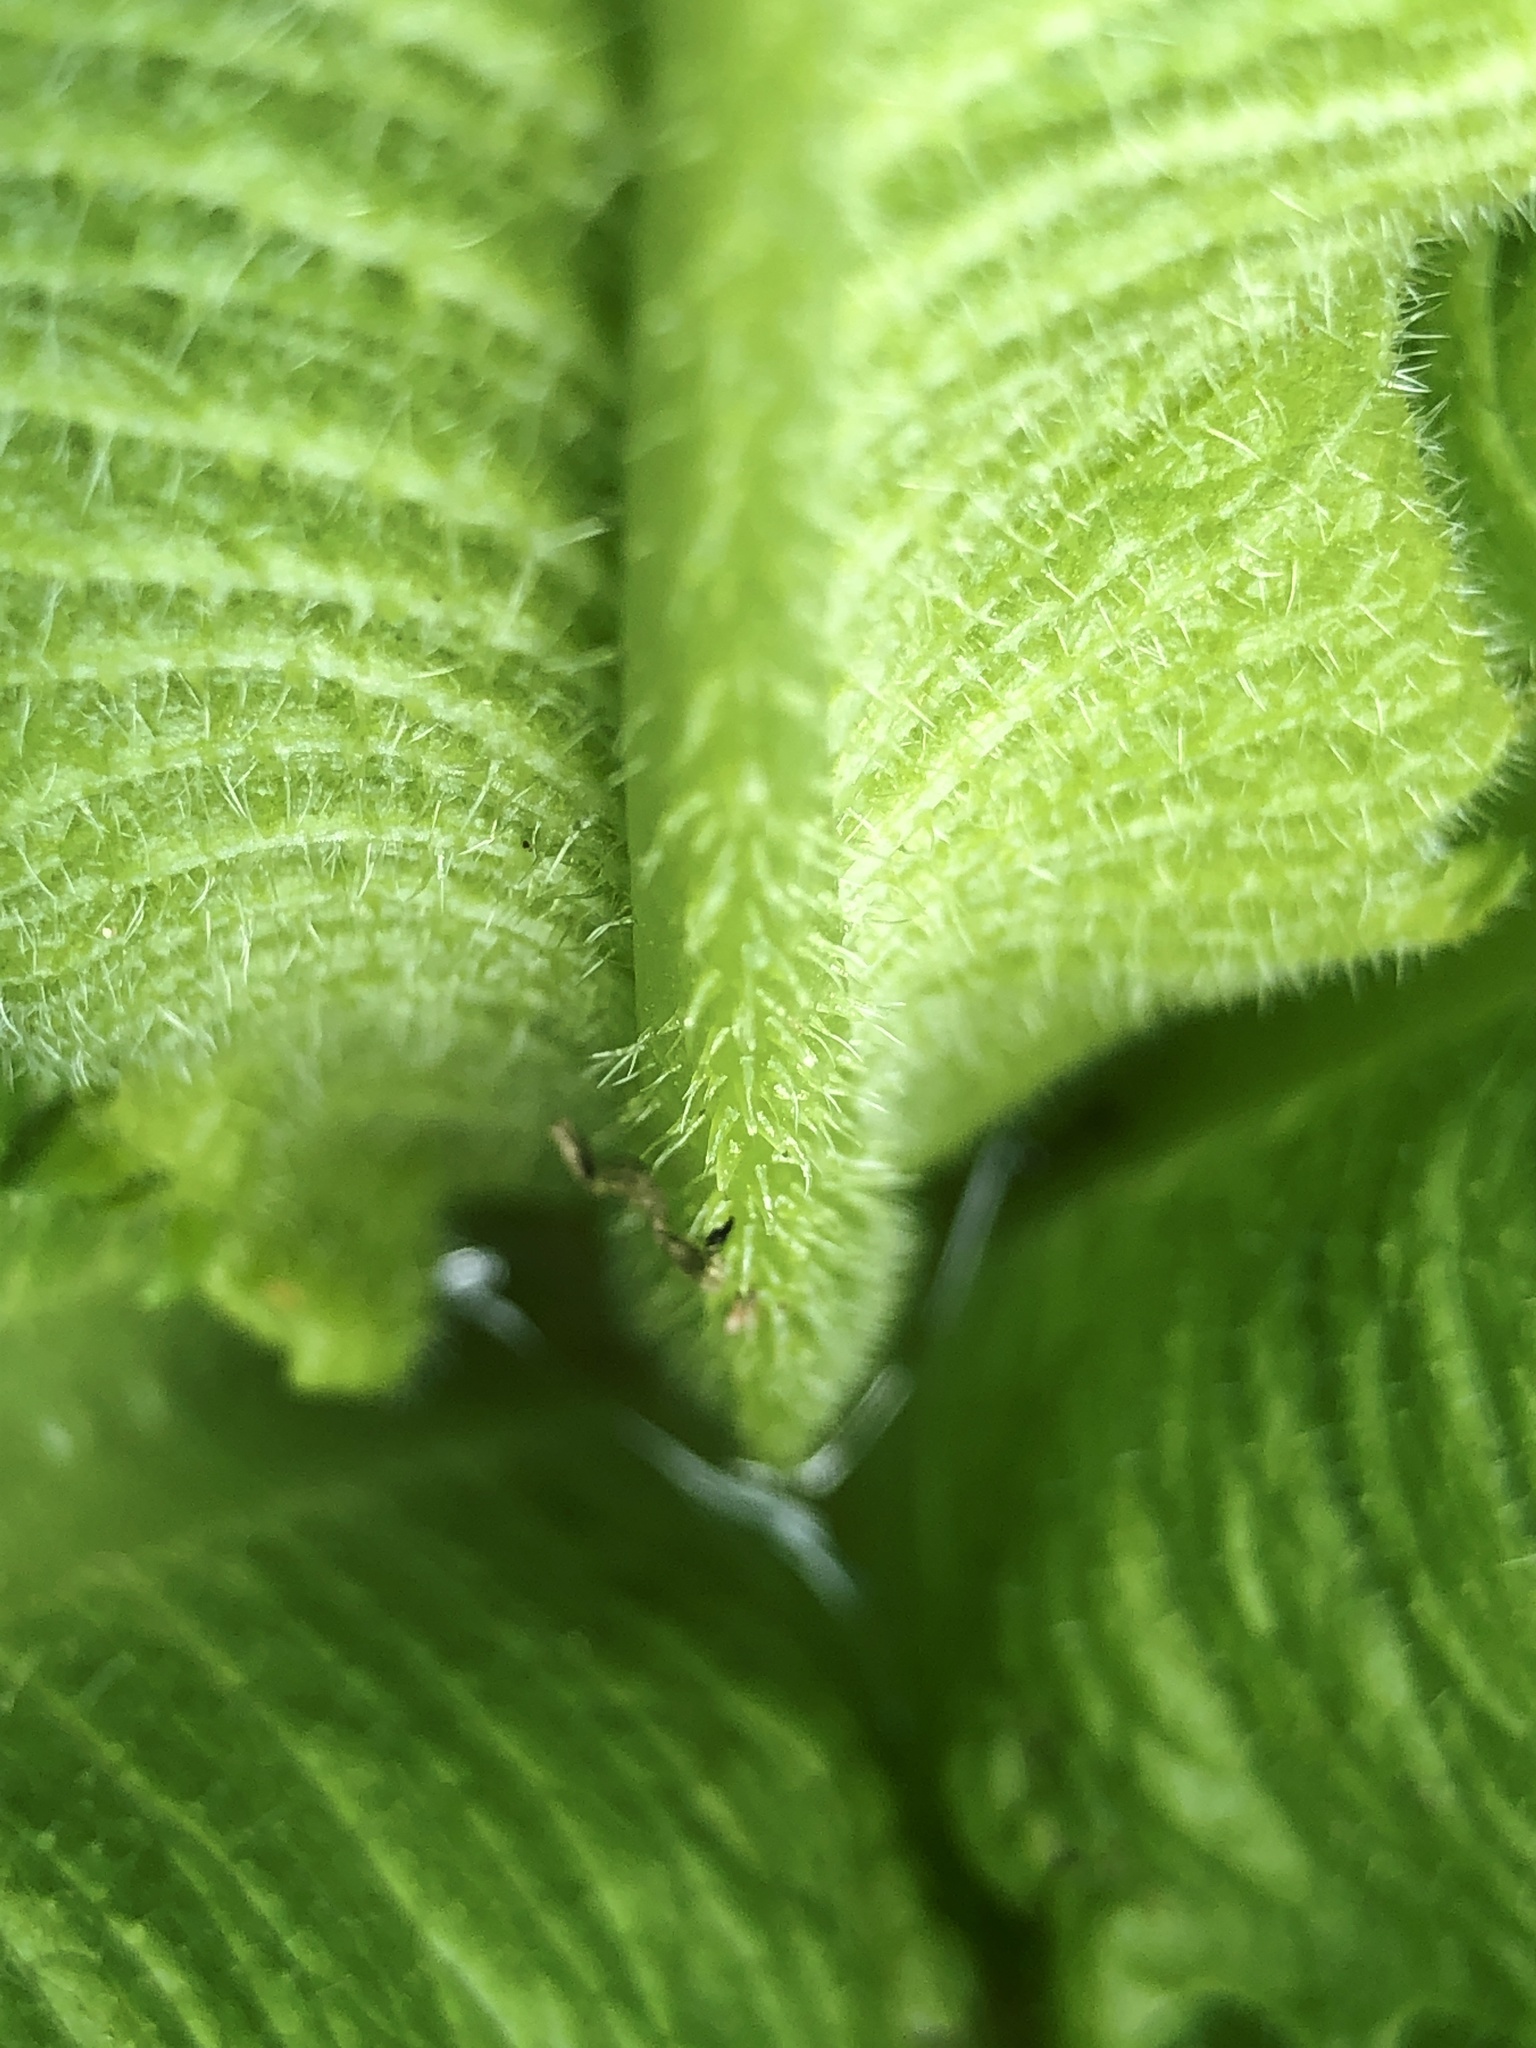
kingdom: Plantae
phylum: Tracheophyta
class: Magnoliopsida
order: Dipsacales
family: Caprifoliaceae
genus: Dipsacus
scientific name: Dipsacus laciniatus
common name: Cut-leaved teasel
